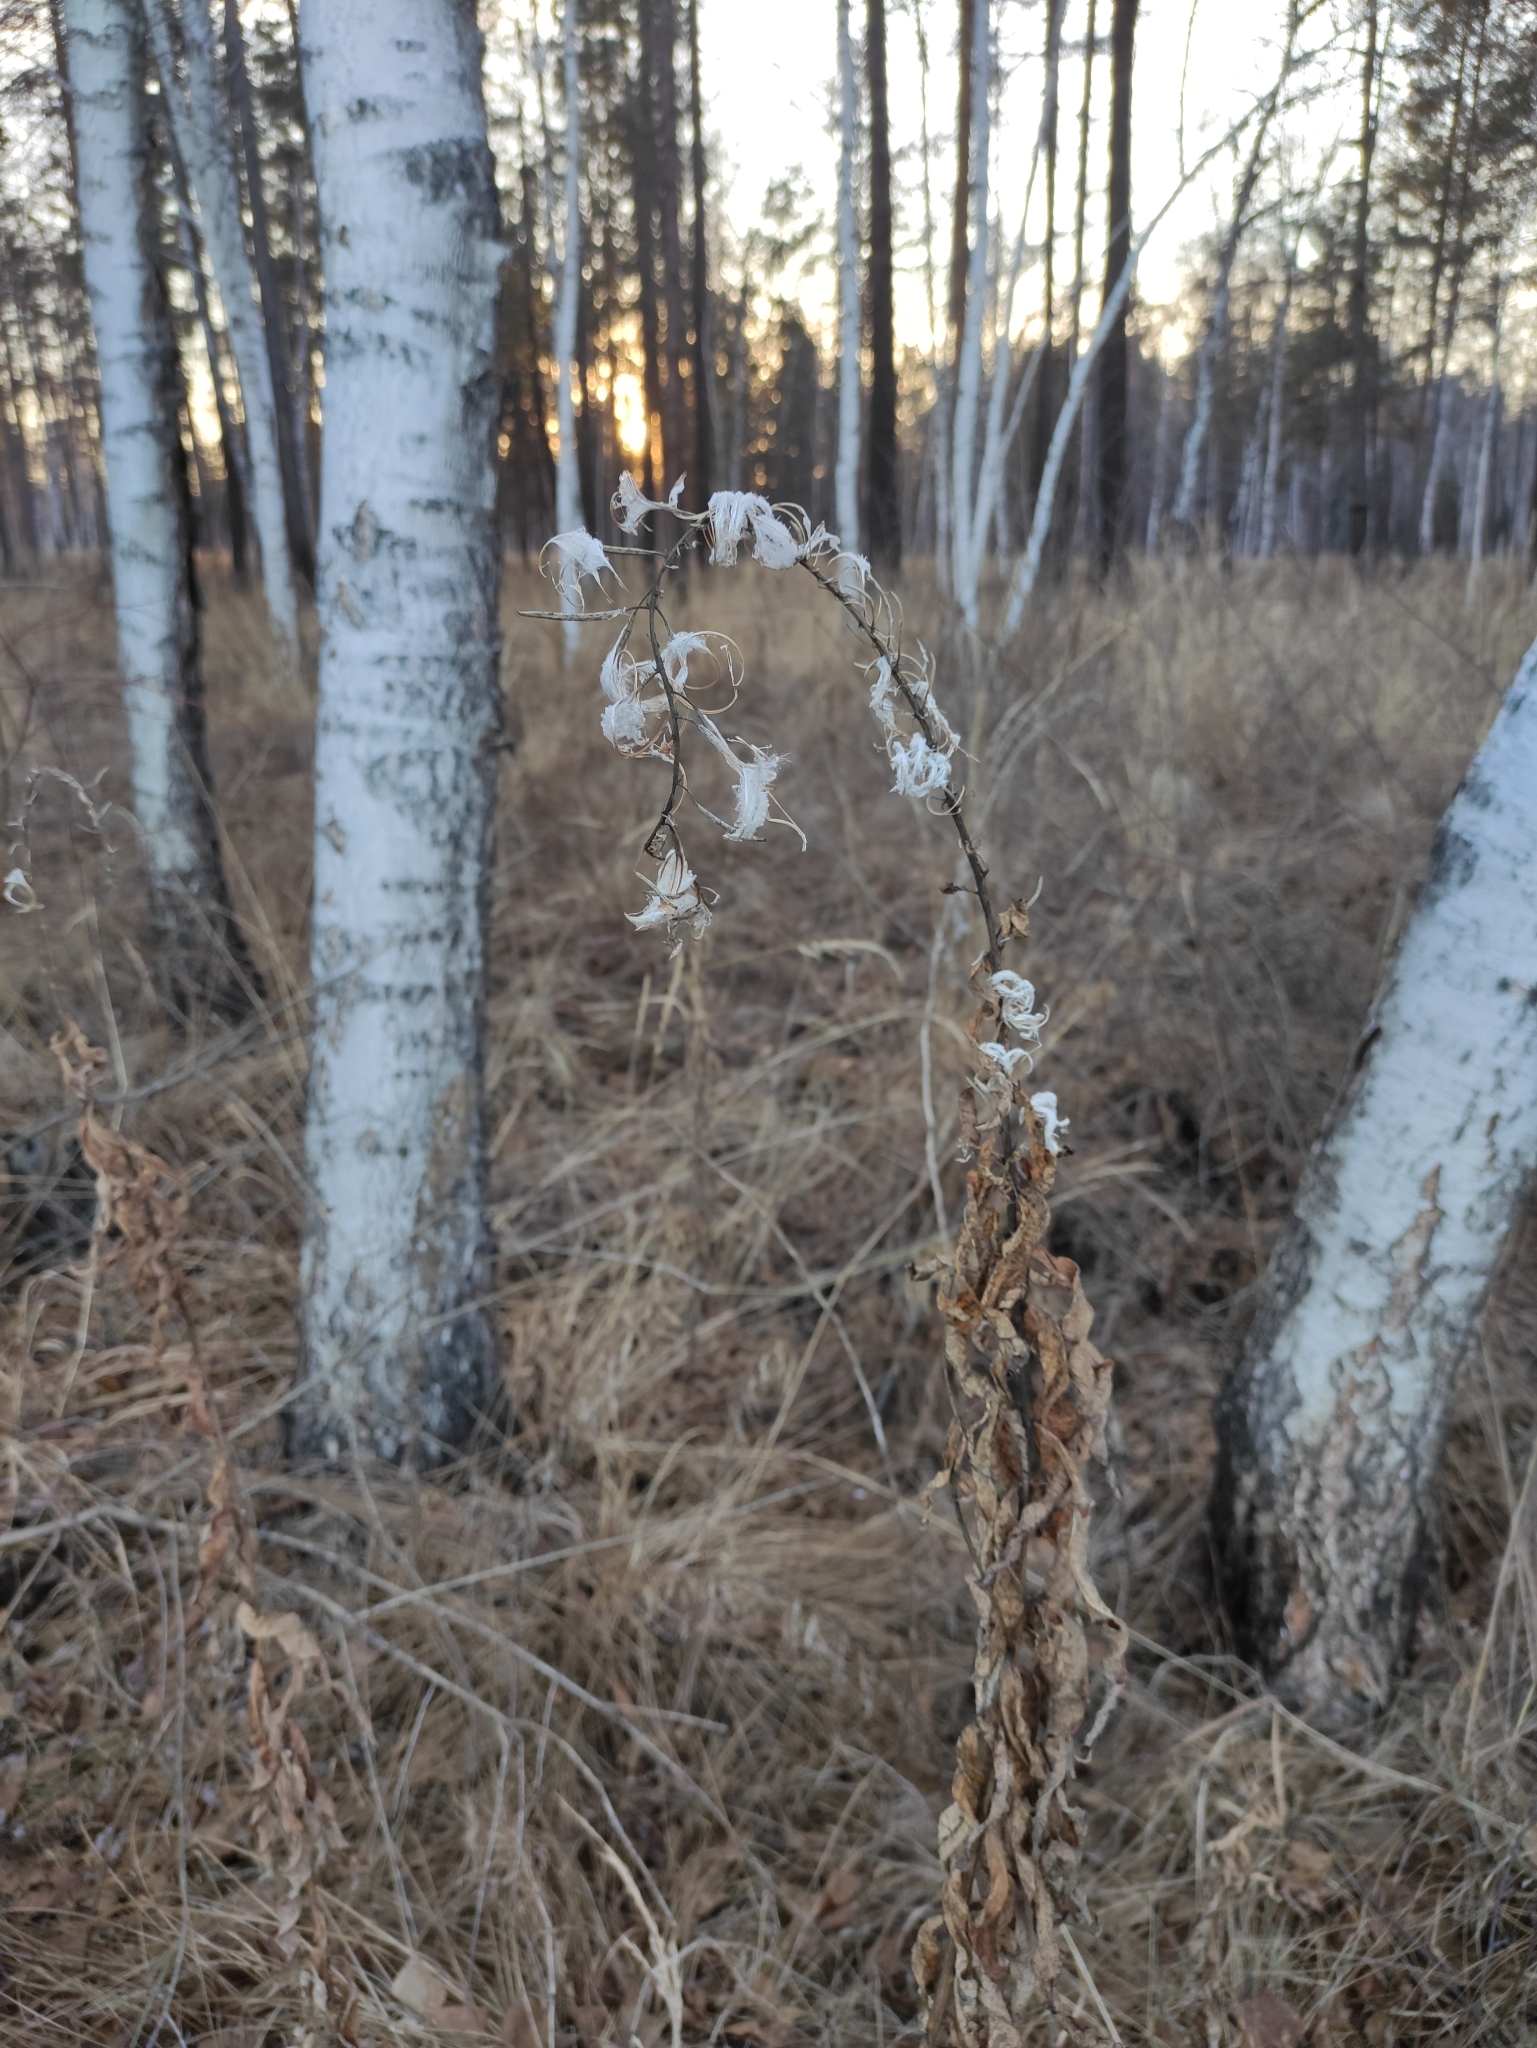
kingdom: Plantae
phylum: Tracheophyta
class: Magnoliopsida
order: Myrtales
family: Onagraceae
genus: Chamaenerion
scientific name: Chamaenerion angustifolium
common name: Fireweed
